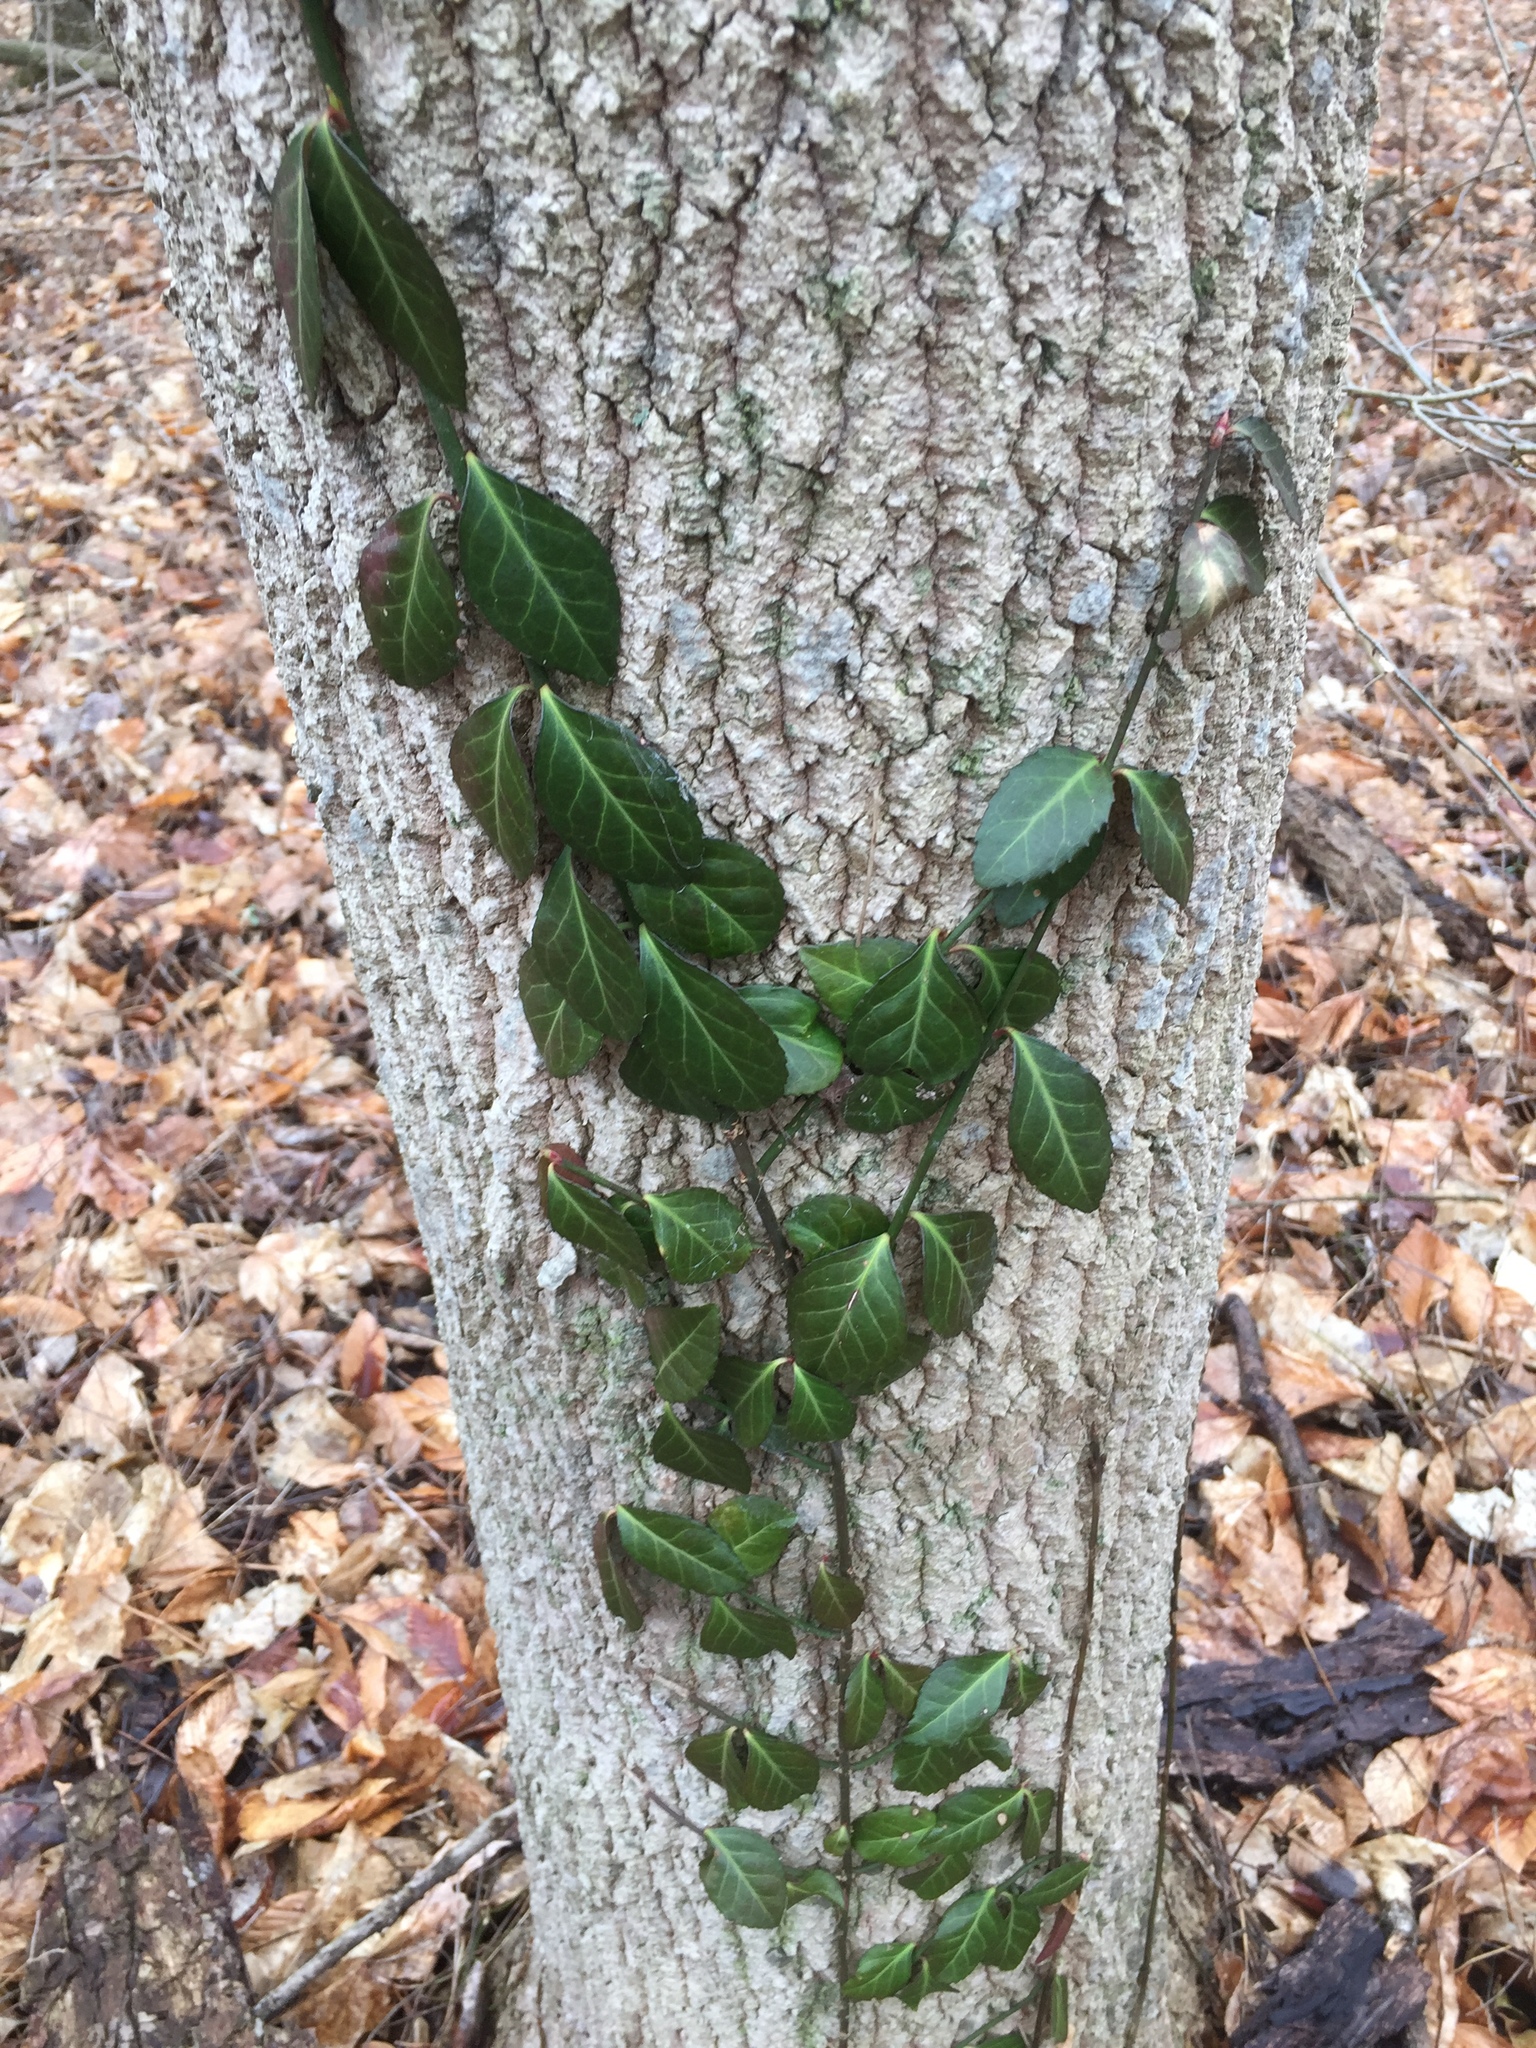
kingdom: Plantae
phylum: Tracheophyta
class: Magnoliopsida
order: Celastrales
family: Celastraceae
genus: Euonymus
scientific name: Euonymus fortunei
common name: Climbing euonymus
